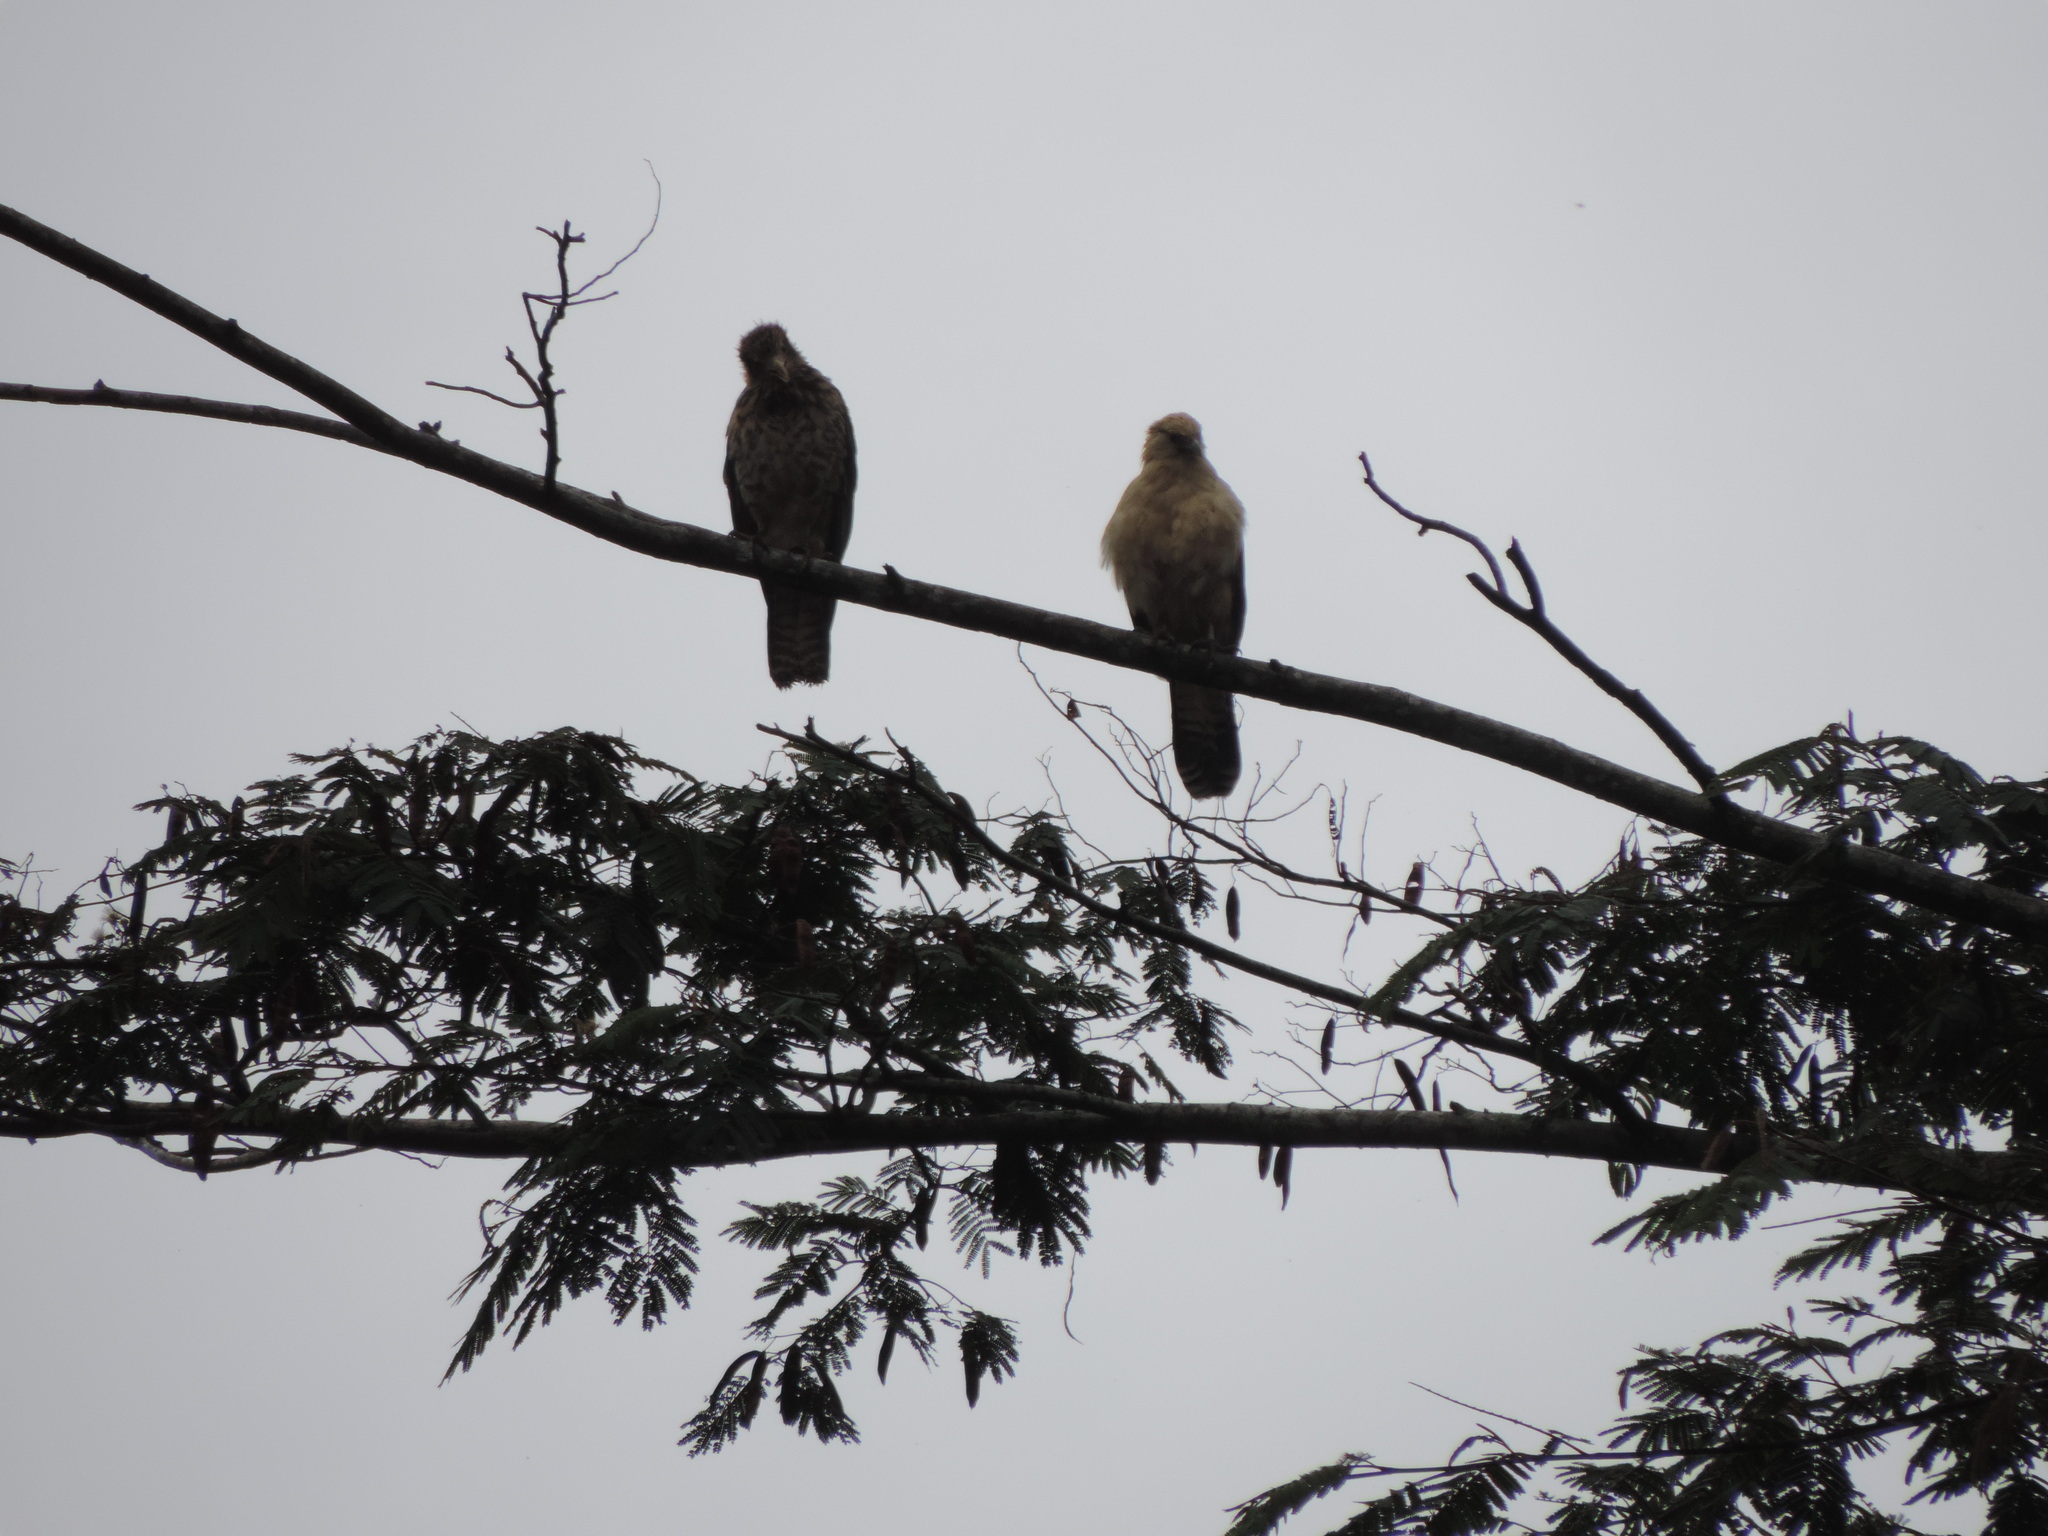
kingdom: Animalia
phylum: Chordata
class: Aves
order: Falconiformes
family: Falconidae
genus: Daptrius
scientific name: Daptrius
